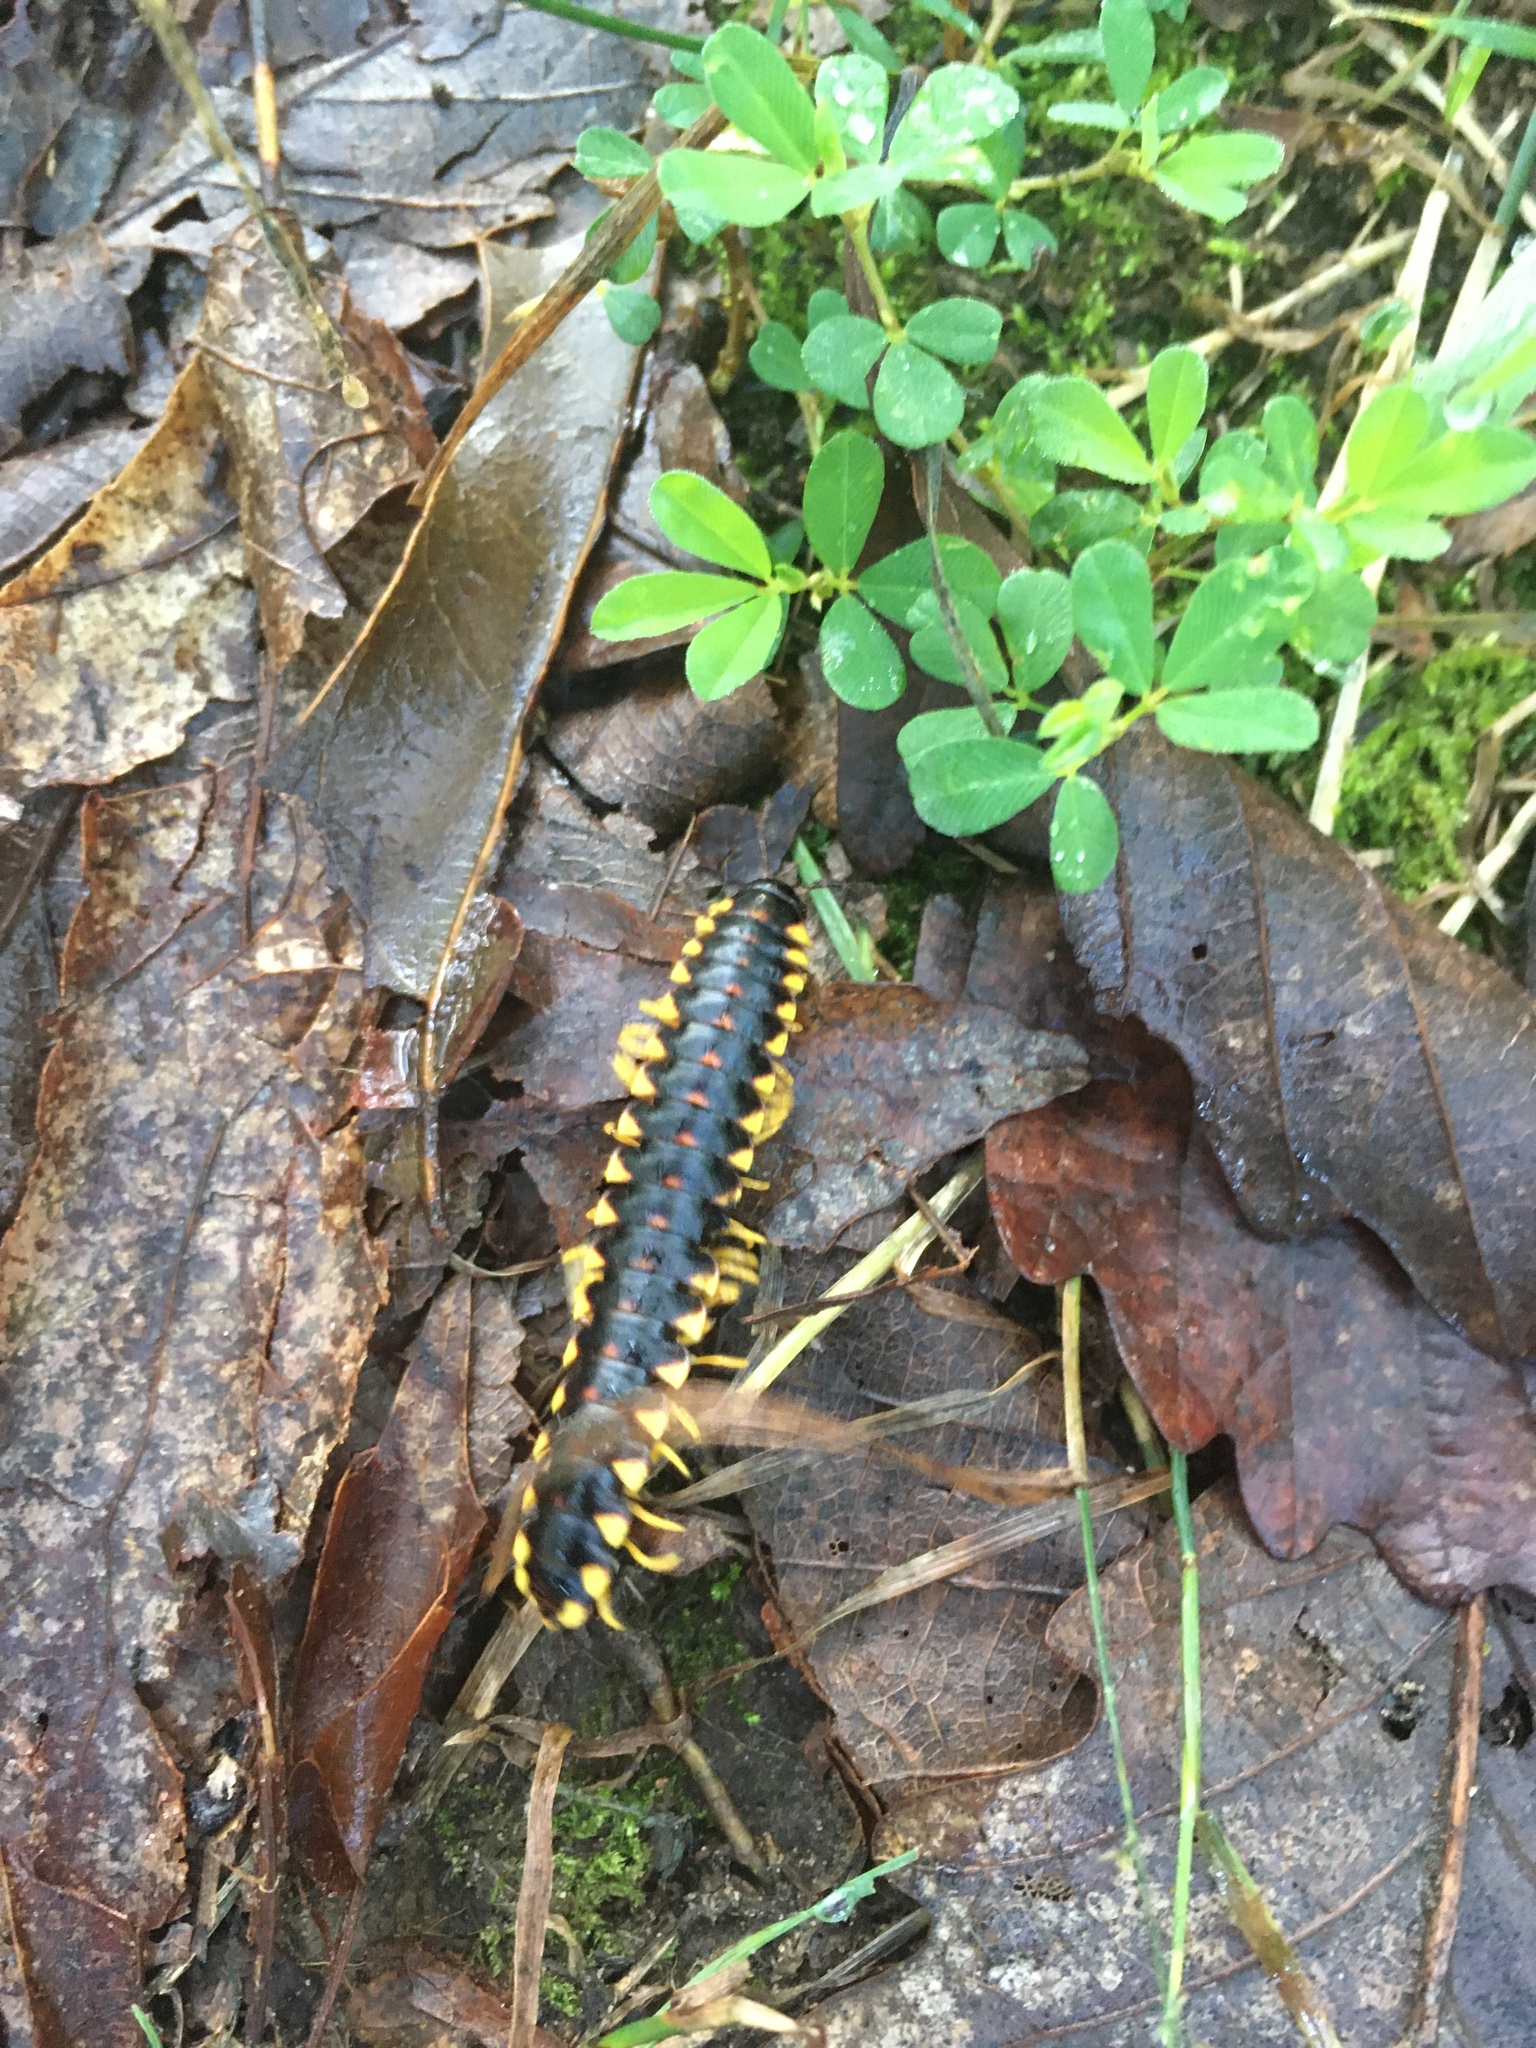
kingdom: Animalia
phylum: Arthropoda
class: Diplopoda
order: Polydesmida
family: Xystodesmidae
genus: Pleuroloma
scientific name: Pleuroloma flavipes
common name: Yellow-legged pleuroloma
